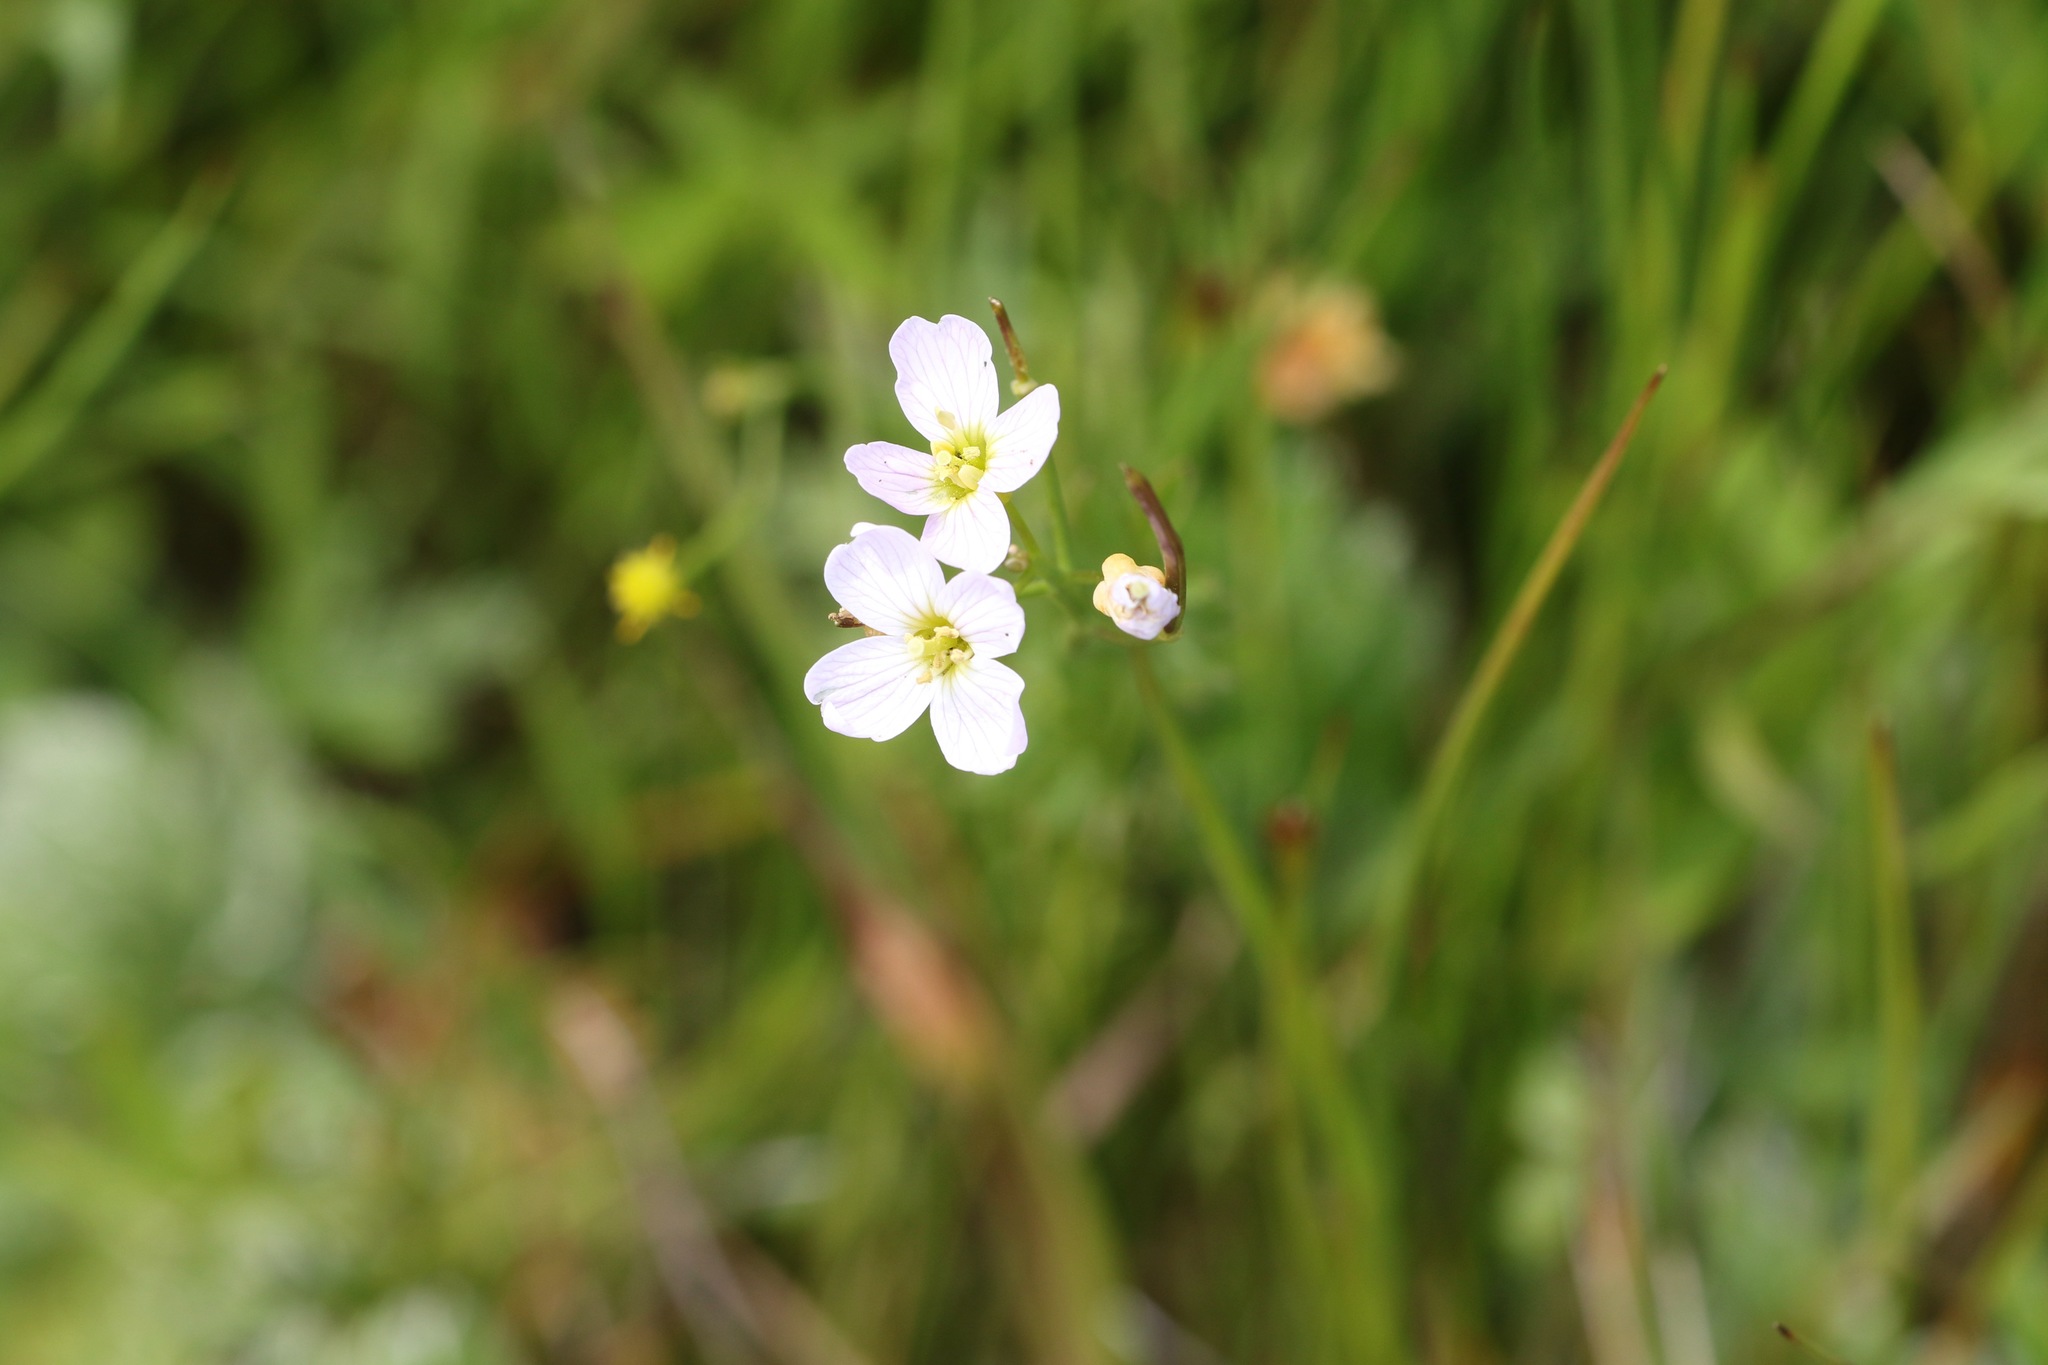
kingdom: Plantae
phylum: Tracheophyta
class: Magnoliopsida
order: Brassicales
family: Brassicaceae
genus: Cardamine
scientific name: Cardamine pratensis
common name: Cuckoo flower
